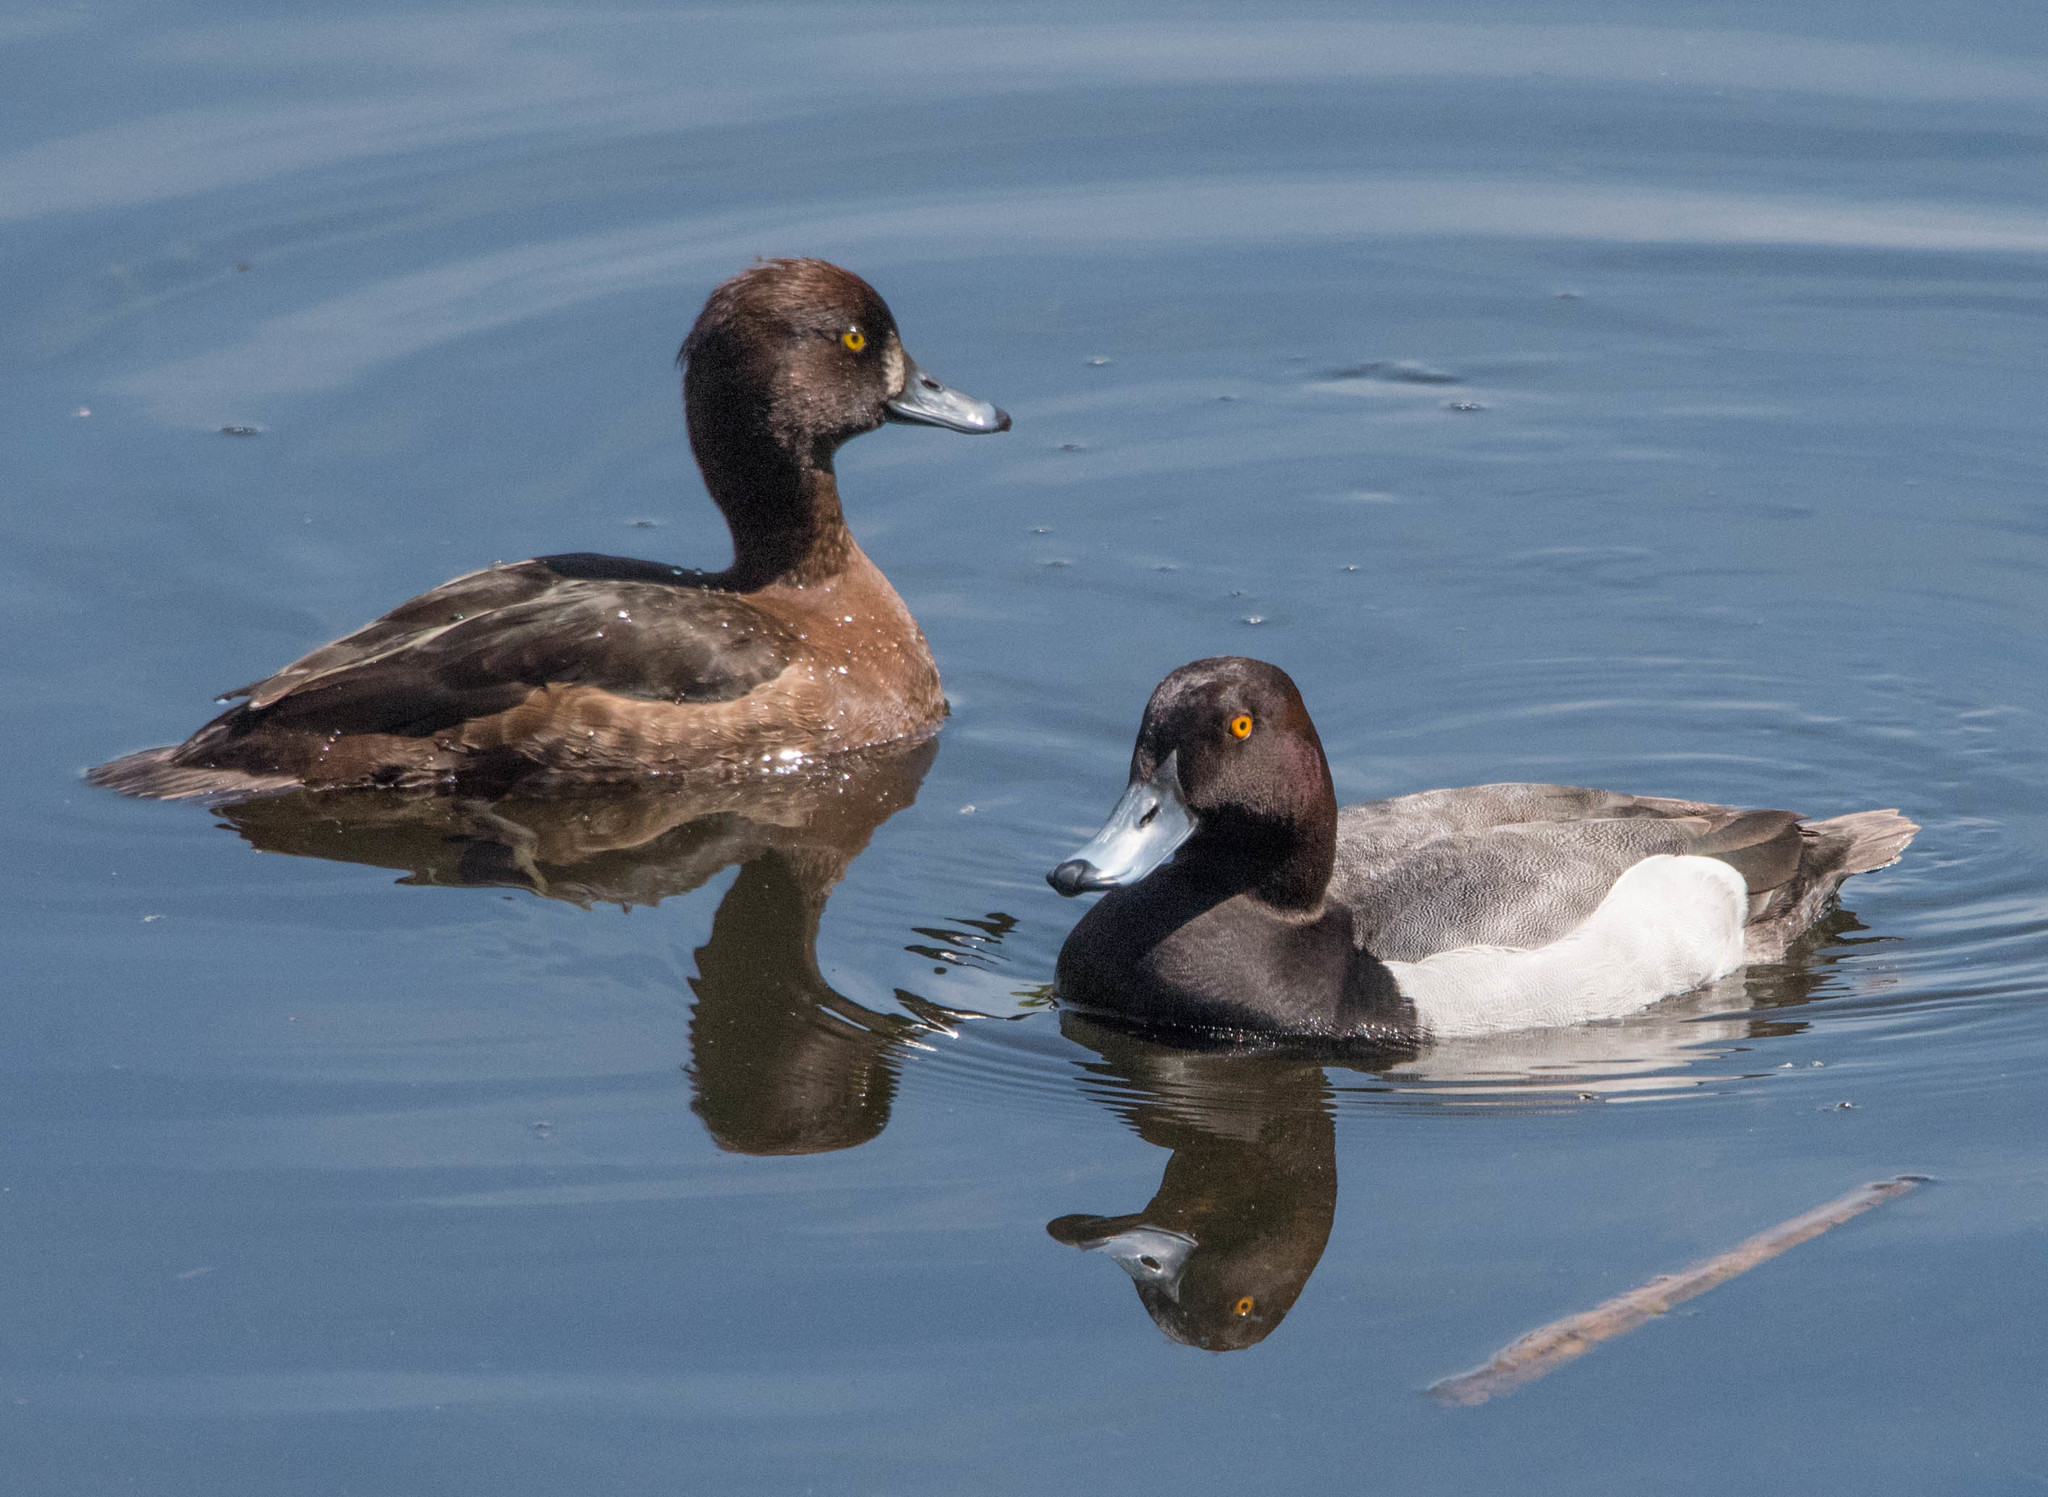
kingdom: Animalia
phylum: Chordata
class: Aves
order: Anseriformes
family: Anatidae
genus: Aythya
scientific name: Aythya
